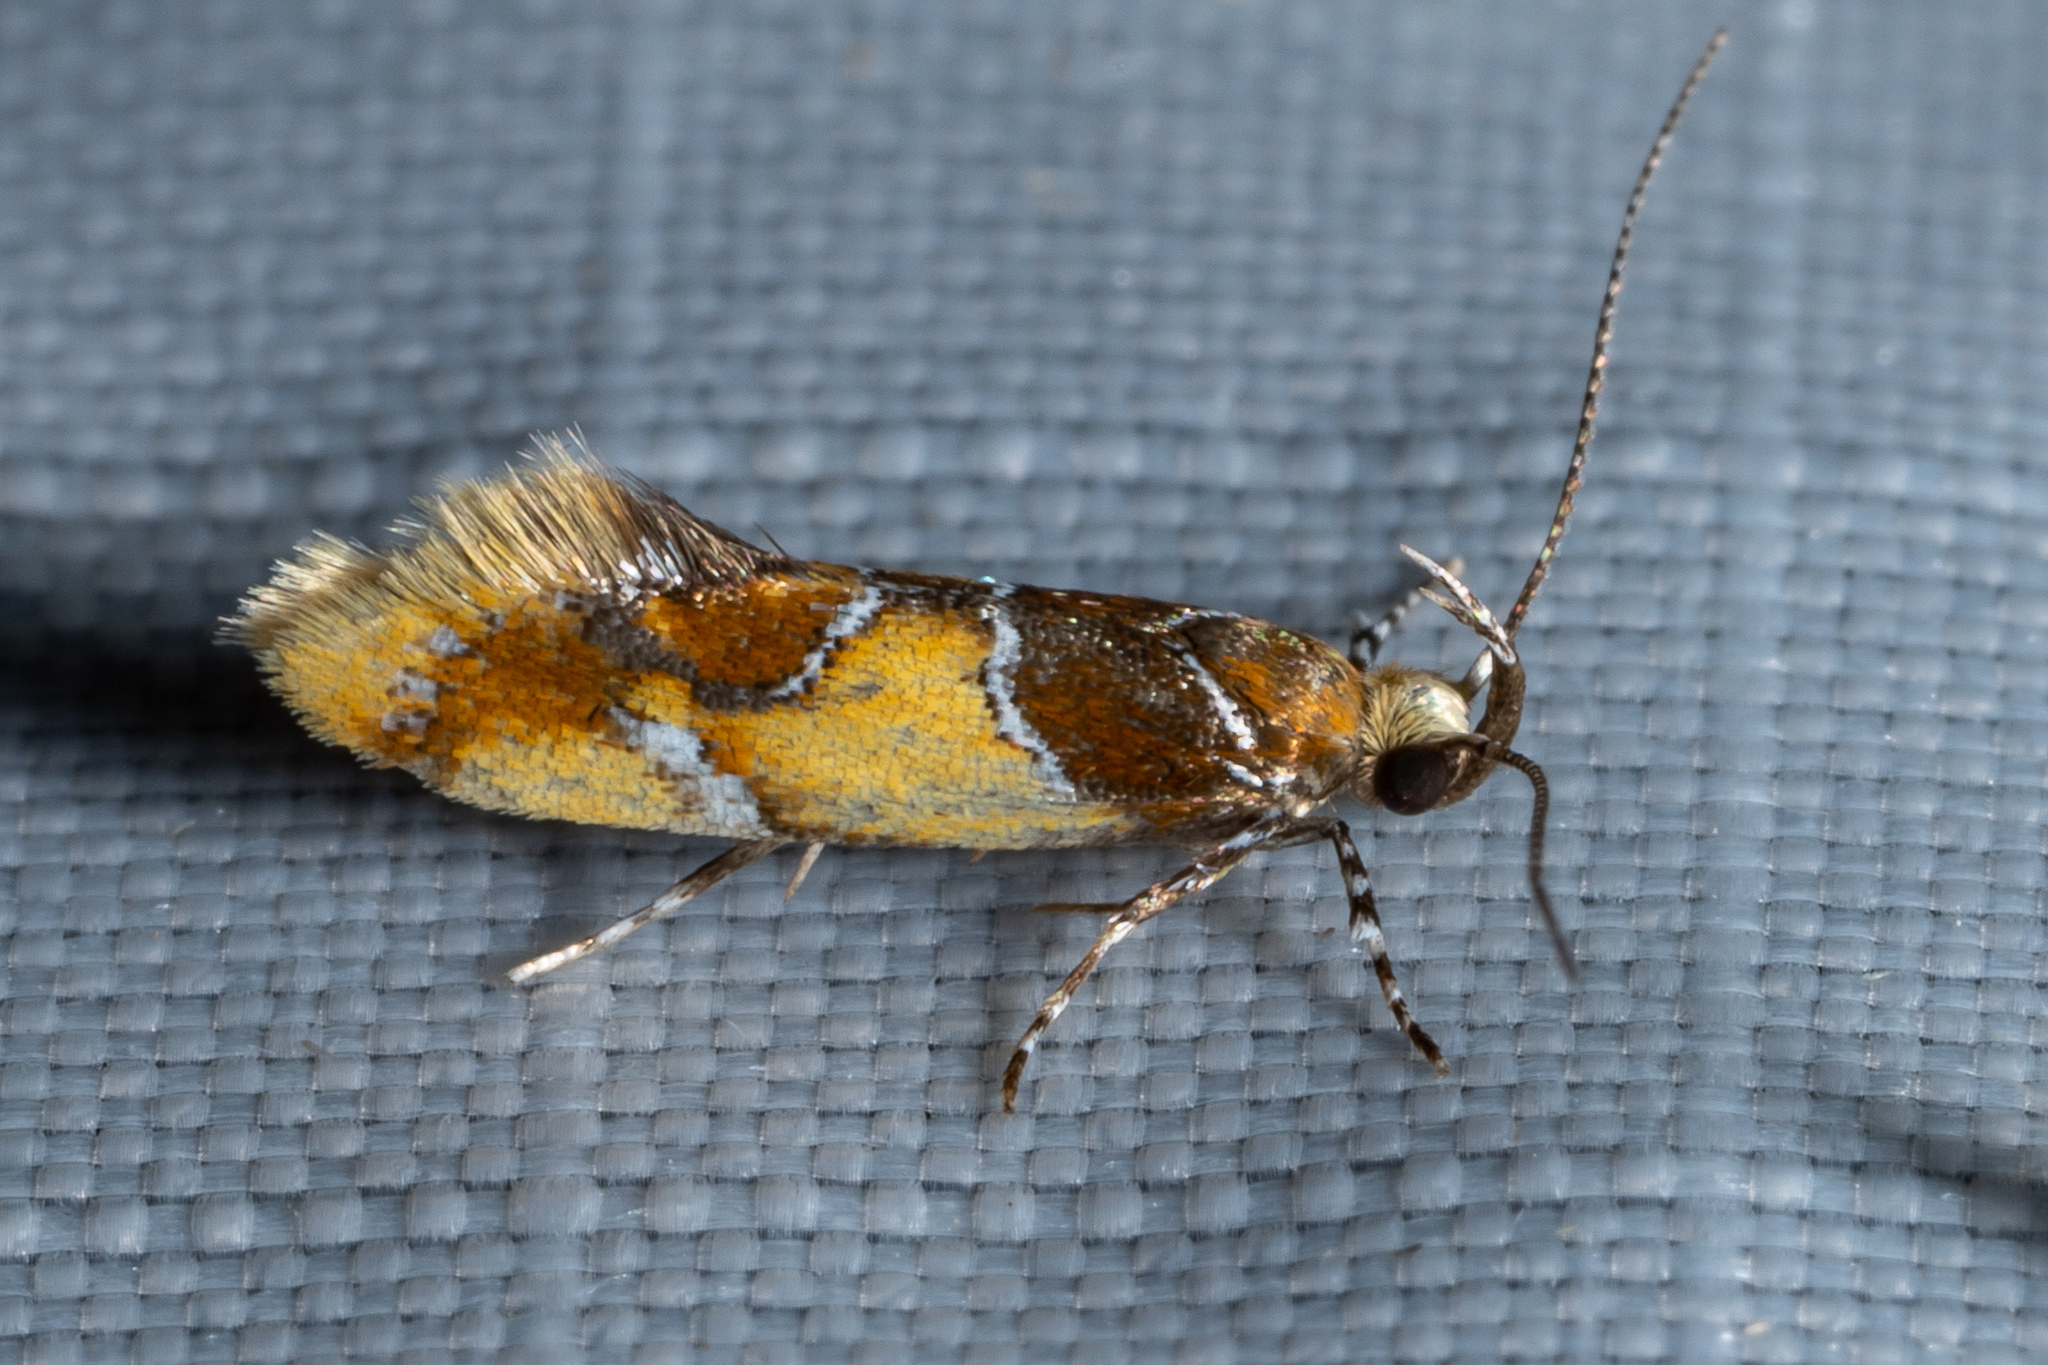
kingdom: Animalia
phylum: Arthropoda
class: Insecta
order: Lepidoptera
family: Oecophoridae
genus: Callima
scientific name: Callima argenticinctella
